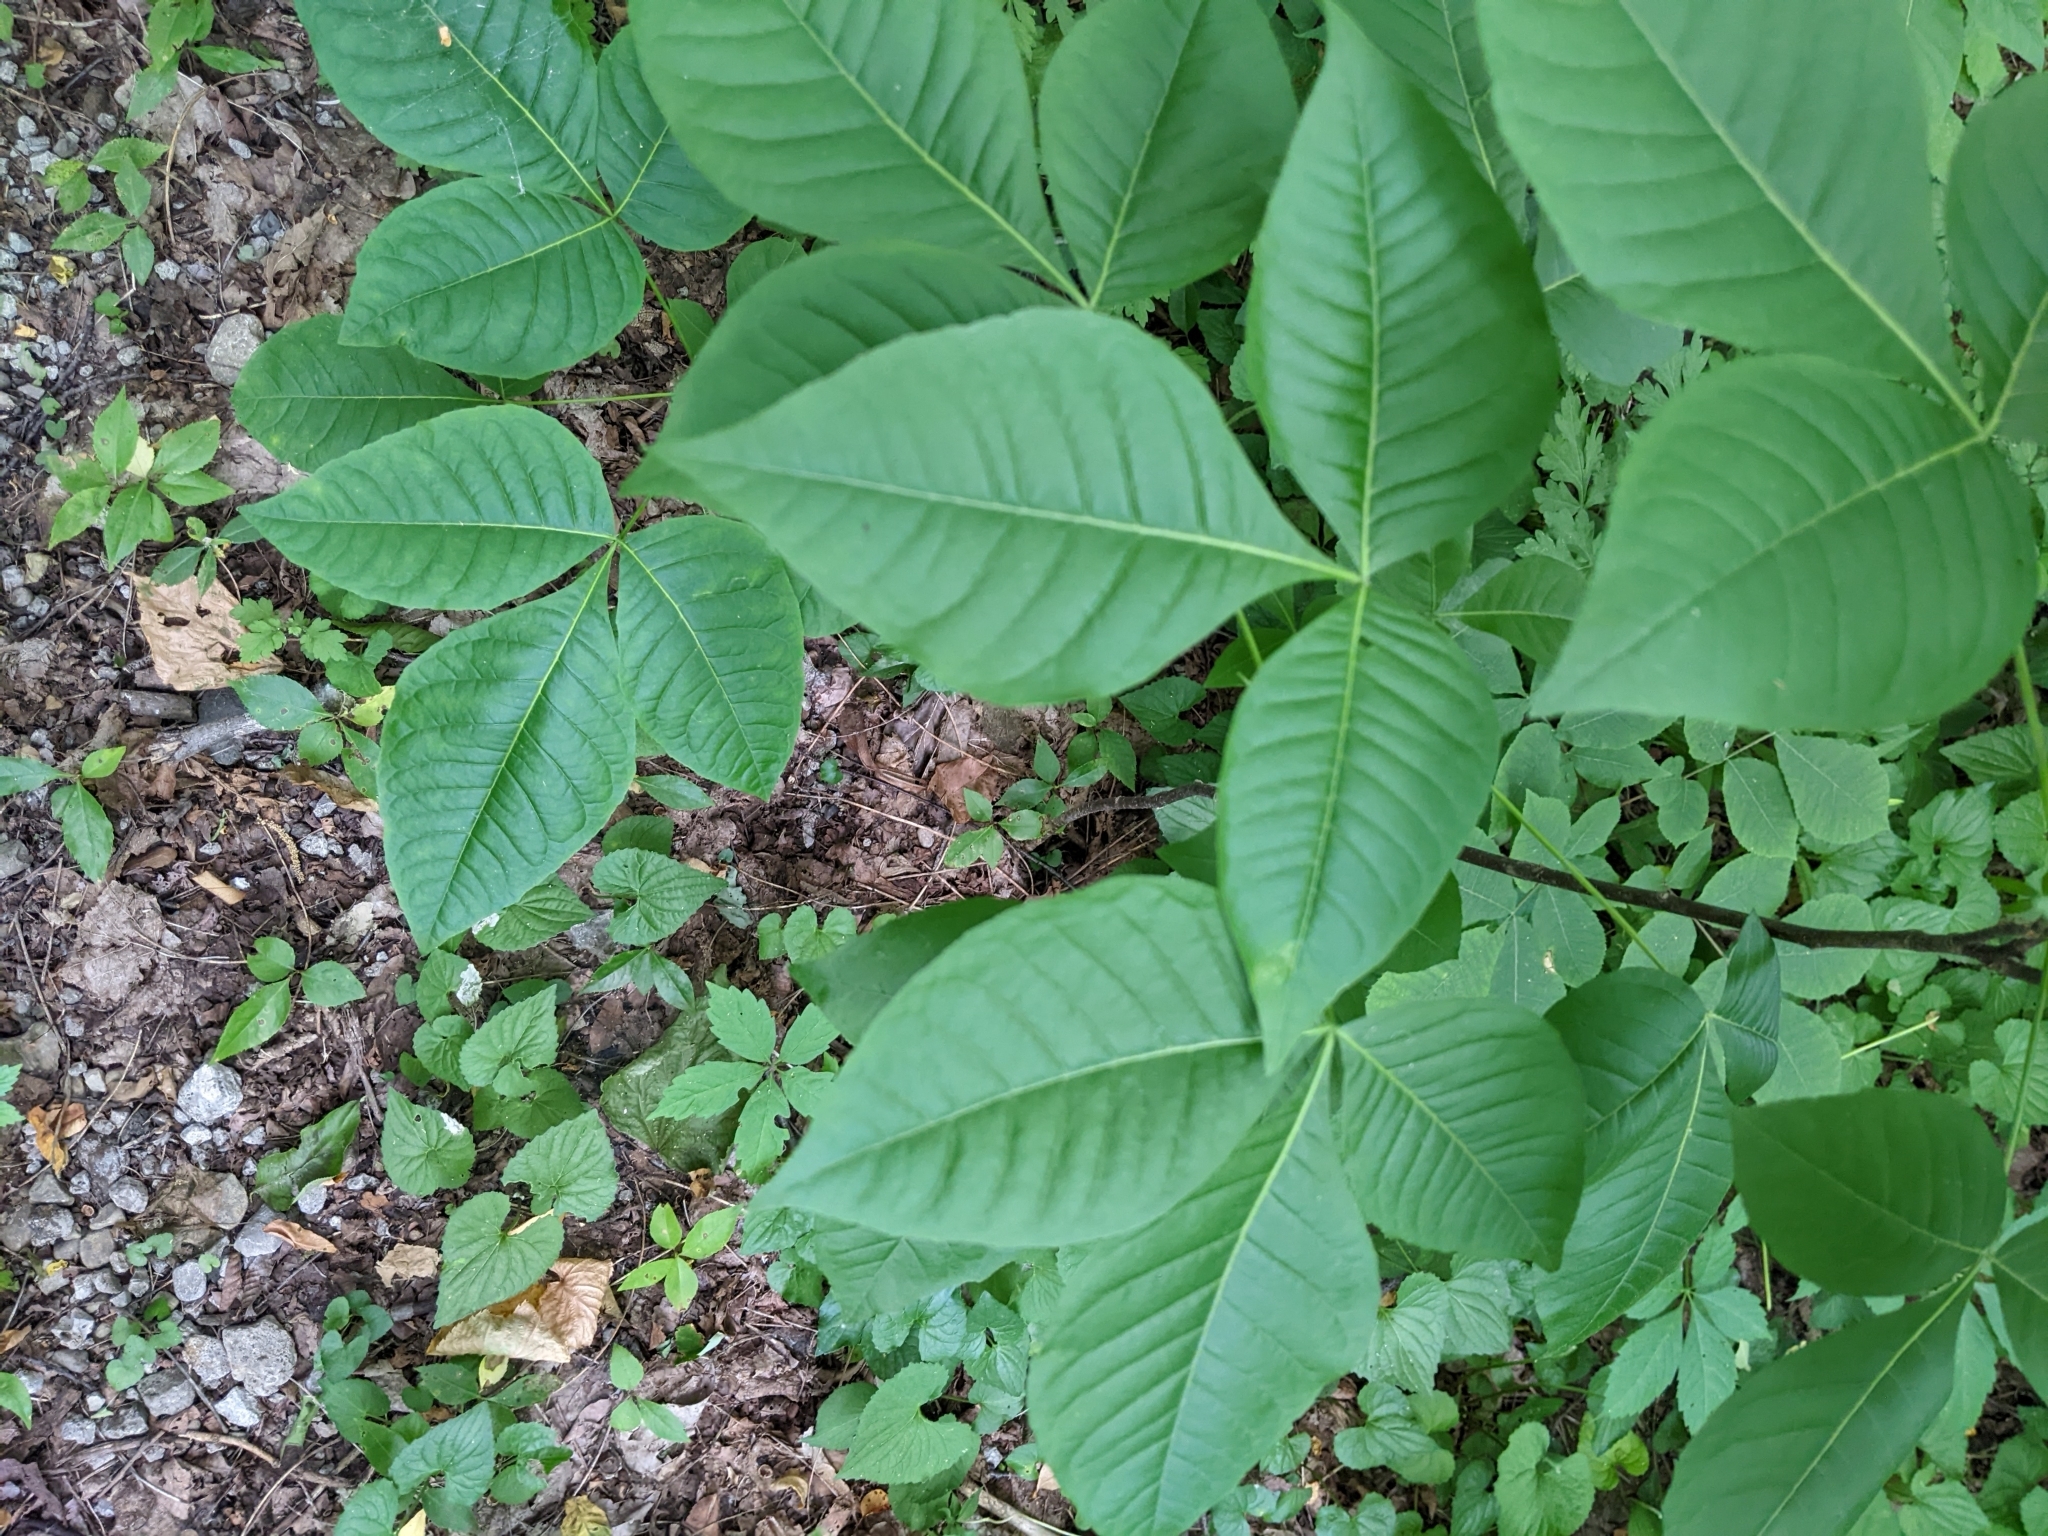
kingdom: Plantae
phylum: Tracheophyta
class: Magnoliopsida
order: Sapindales
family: Rutaceae
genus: Ptelea
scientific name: Ptelea trifoliata
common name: Common hop-tree
